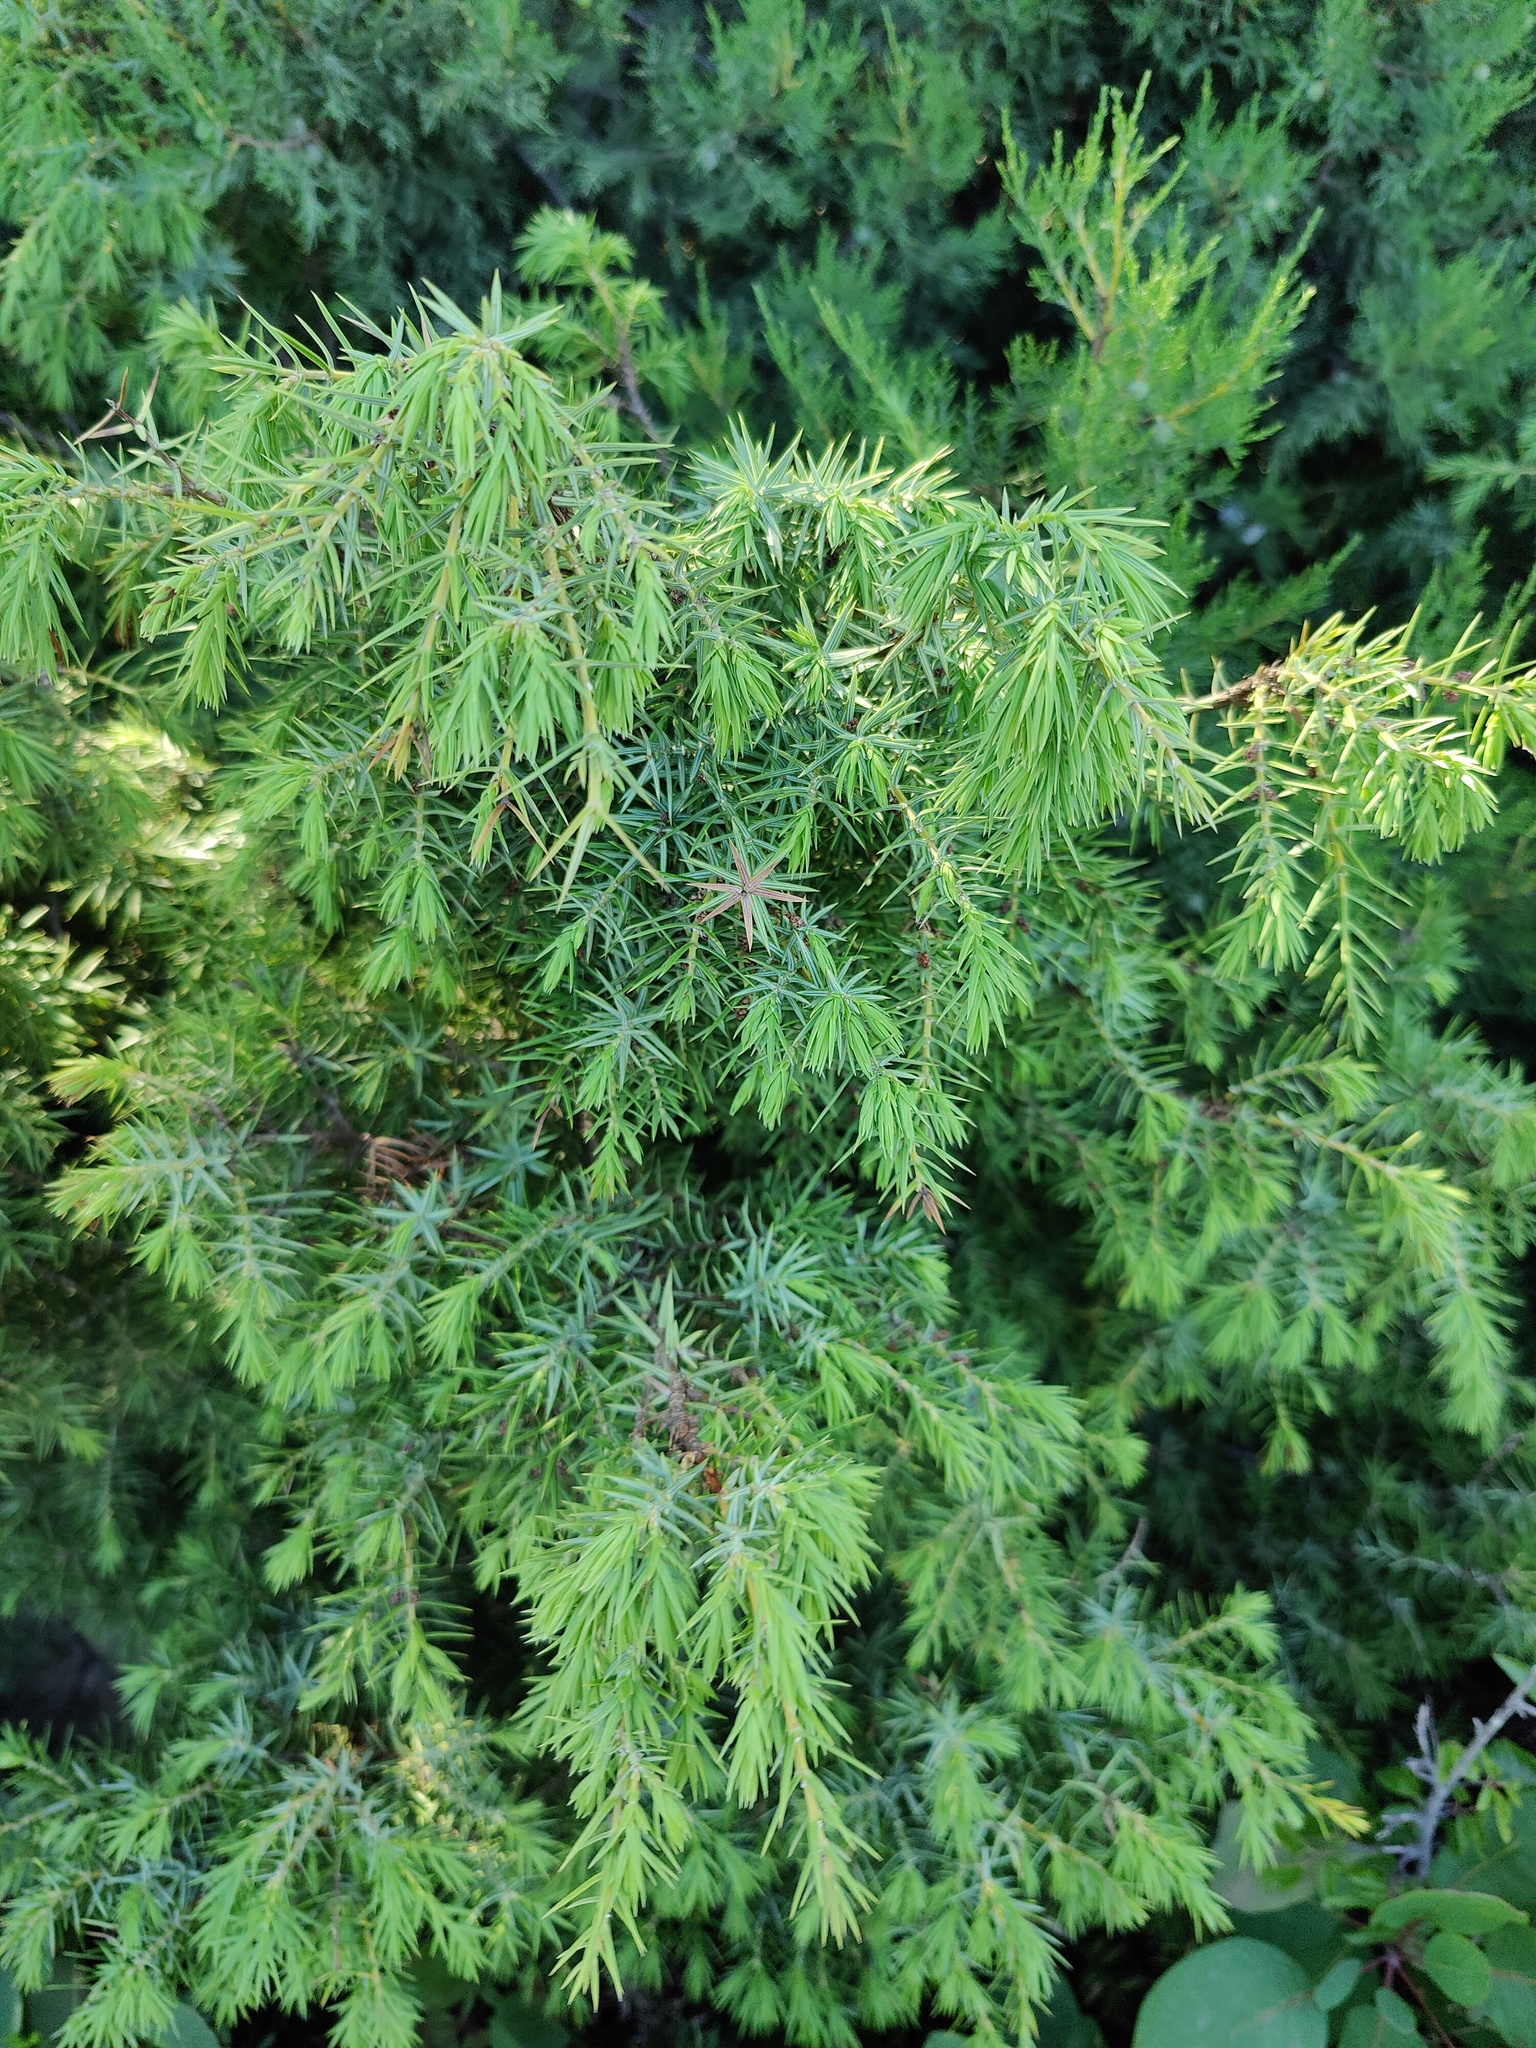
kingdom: Plantae
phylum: Tracheophyta
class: Pinopsida
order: Pinales
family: Cupressaceae
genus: Juniperus
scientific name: Juniperus oxycedrus
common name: Prickly juniper
